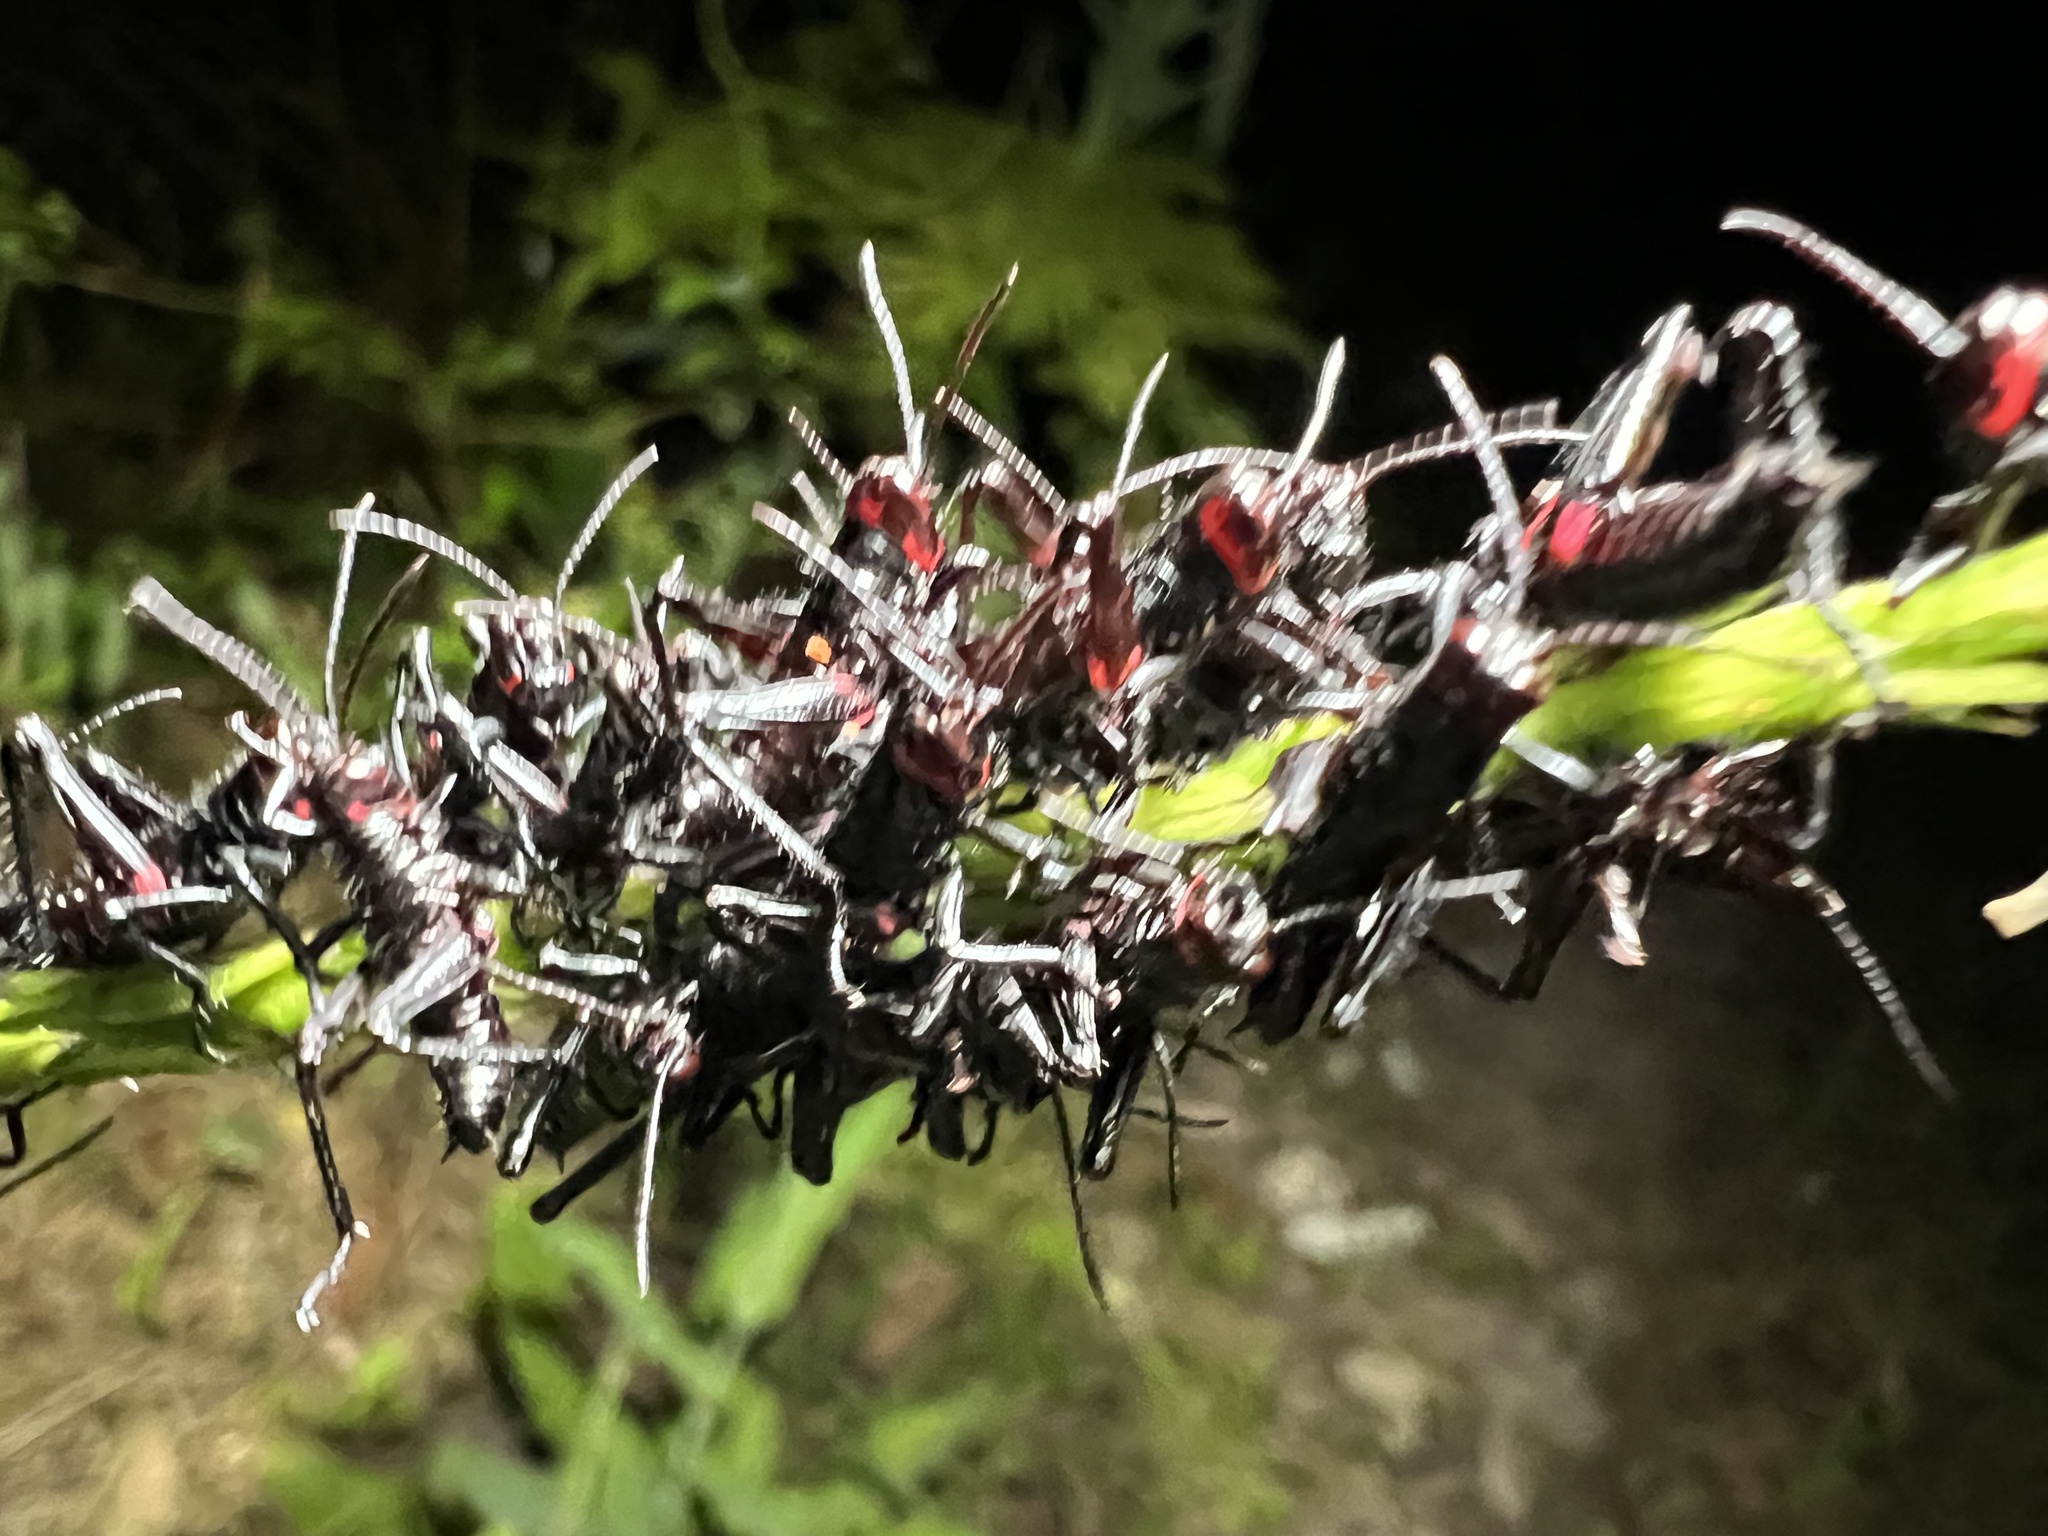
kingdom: Animalia
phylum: Arthropoda
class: Insecta
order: Orthoptera
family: Romaleidae
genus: Chromacris
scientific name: Chromacris speciosa
